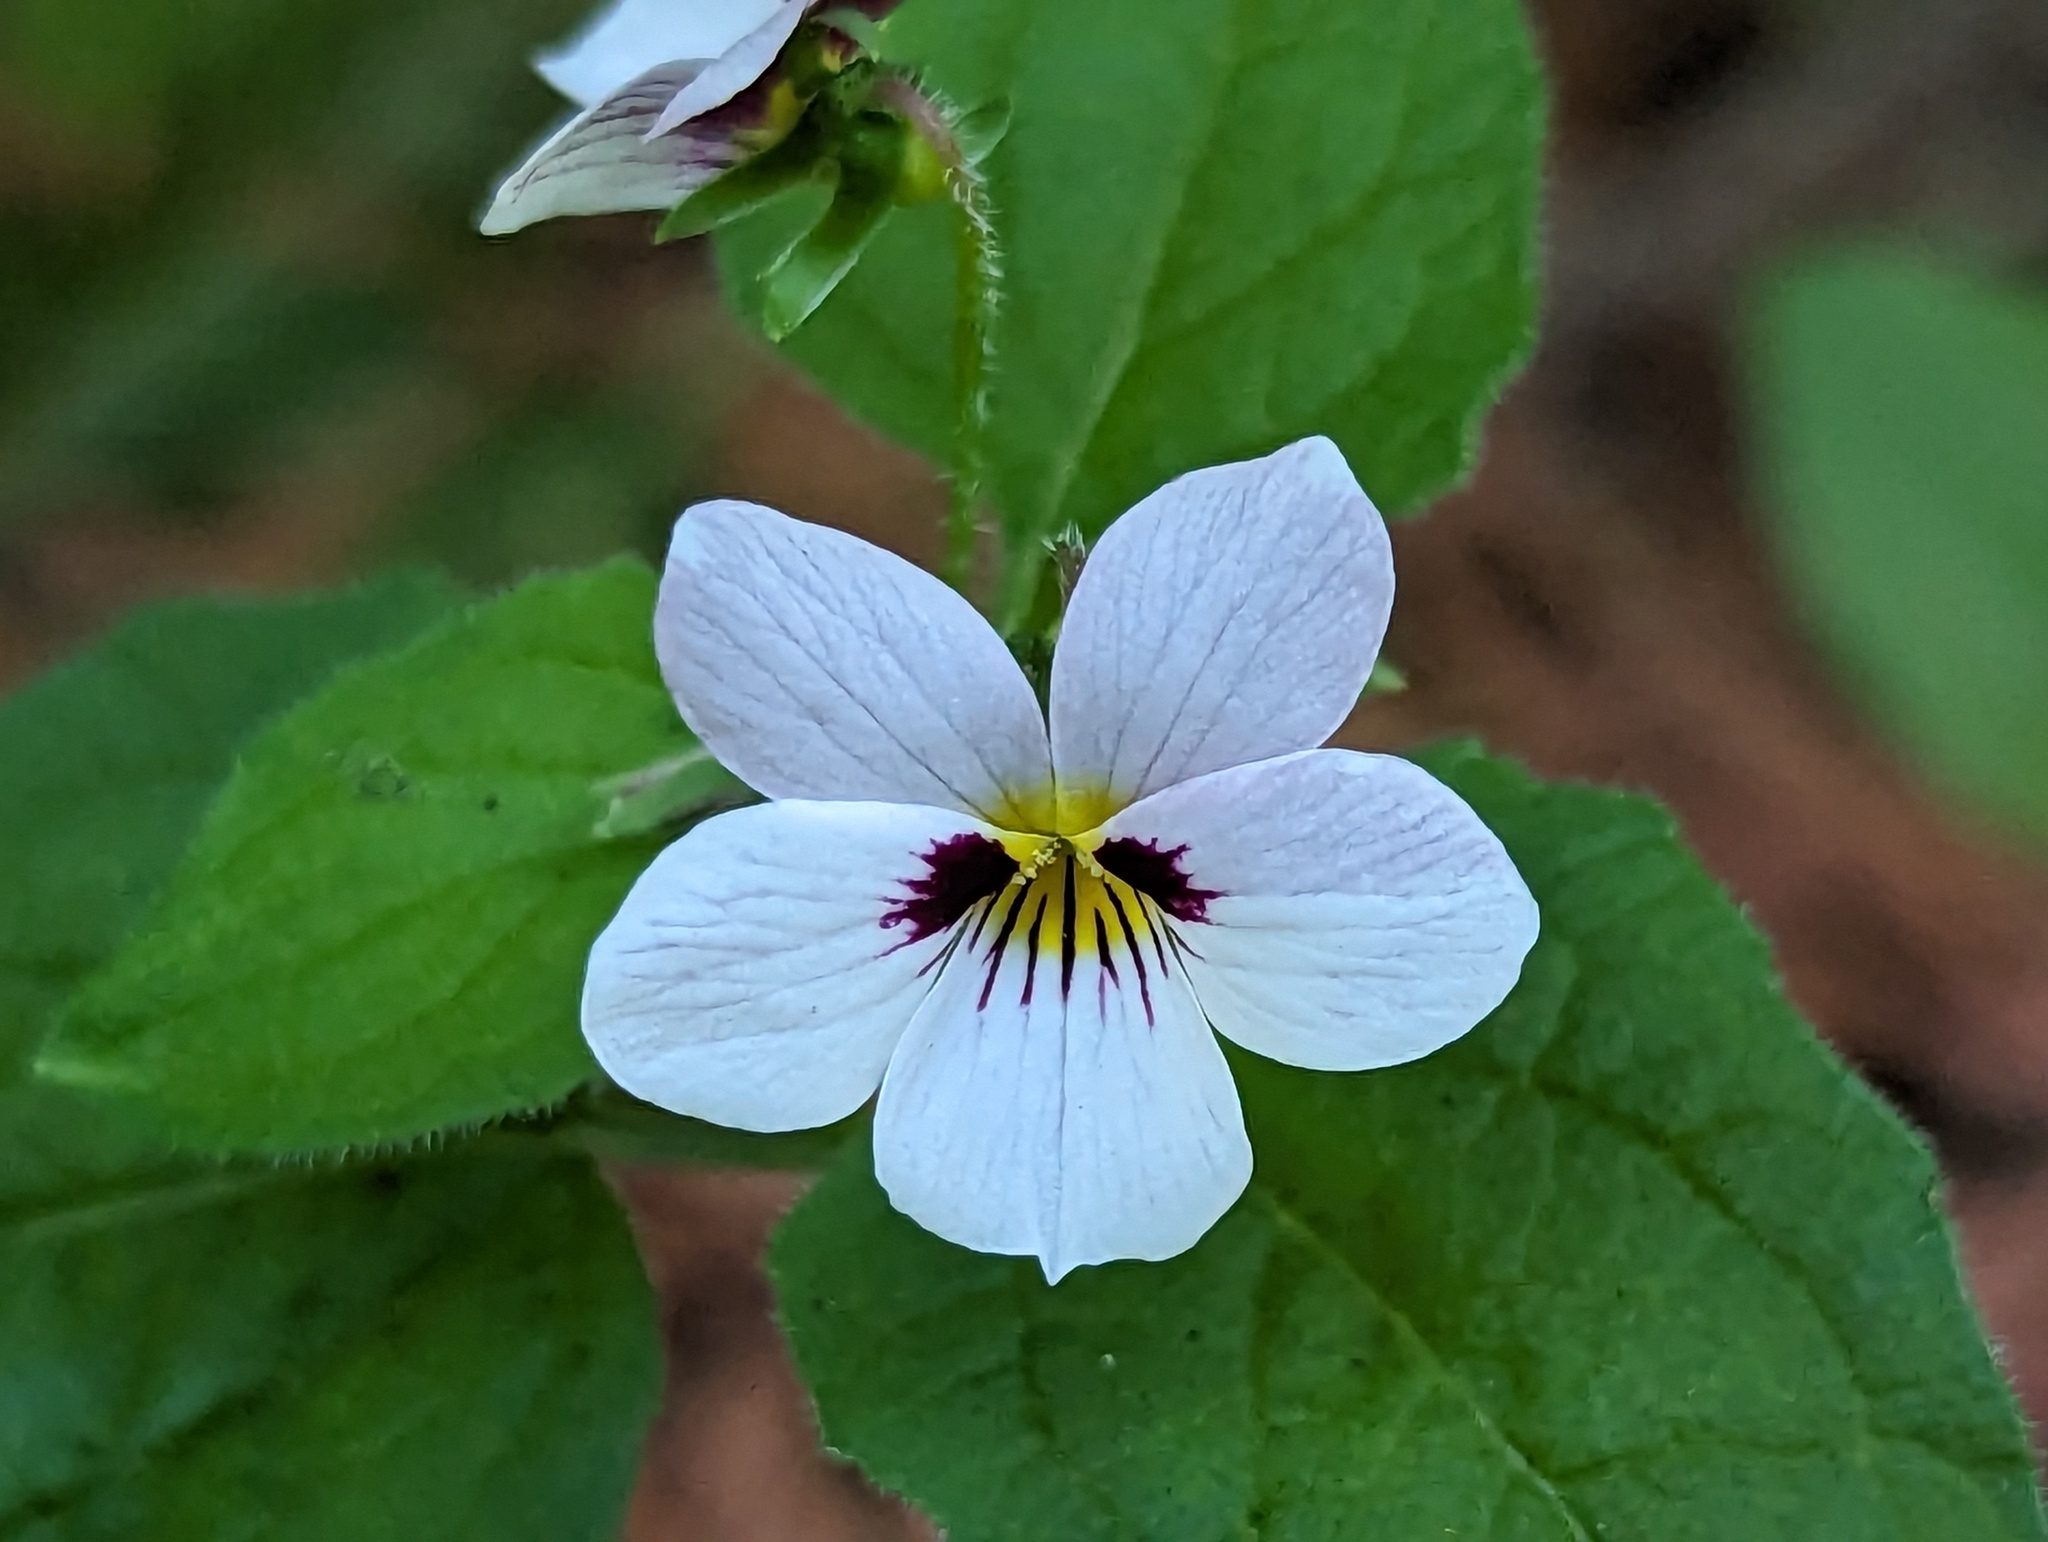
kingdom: Plantae
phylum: Tracheophyta
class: Magnoliopsida
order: Malpighiales
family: Violaceae
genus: Viola
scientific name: Viola ocellata
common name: Western heart's ease
